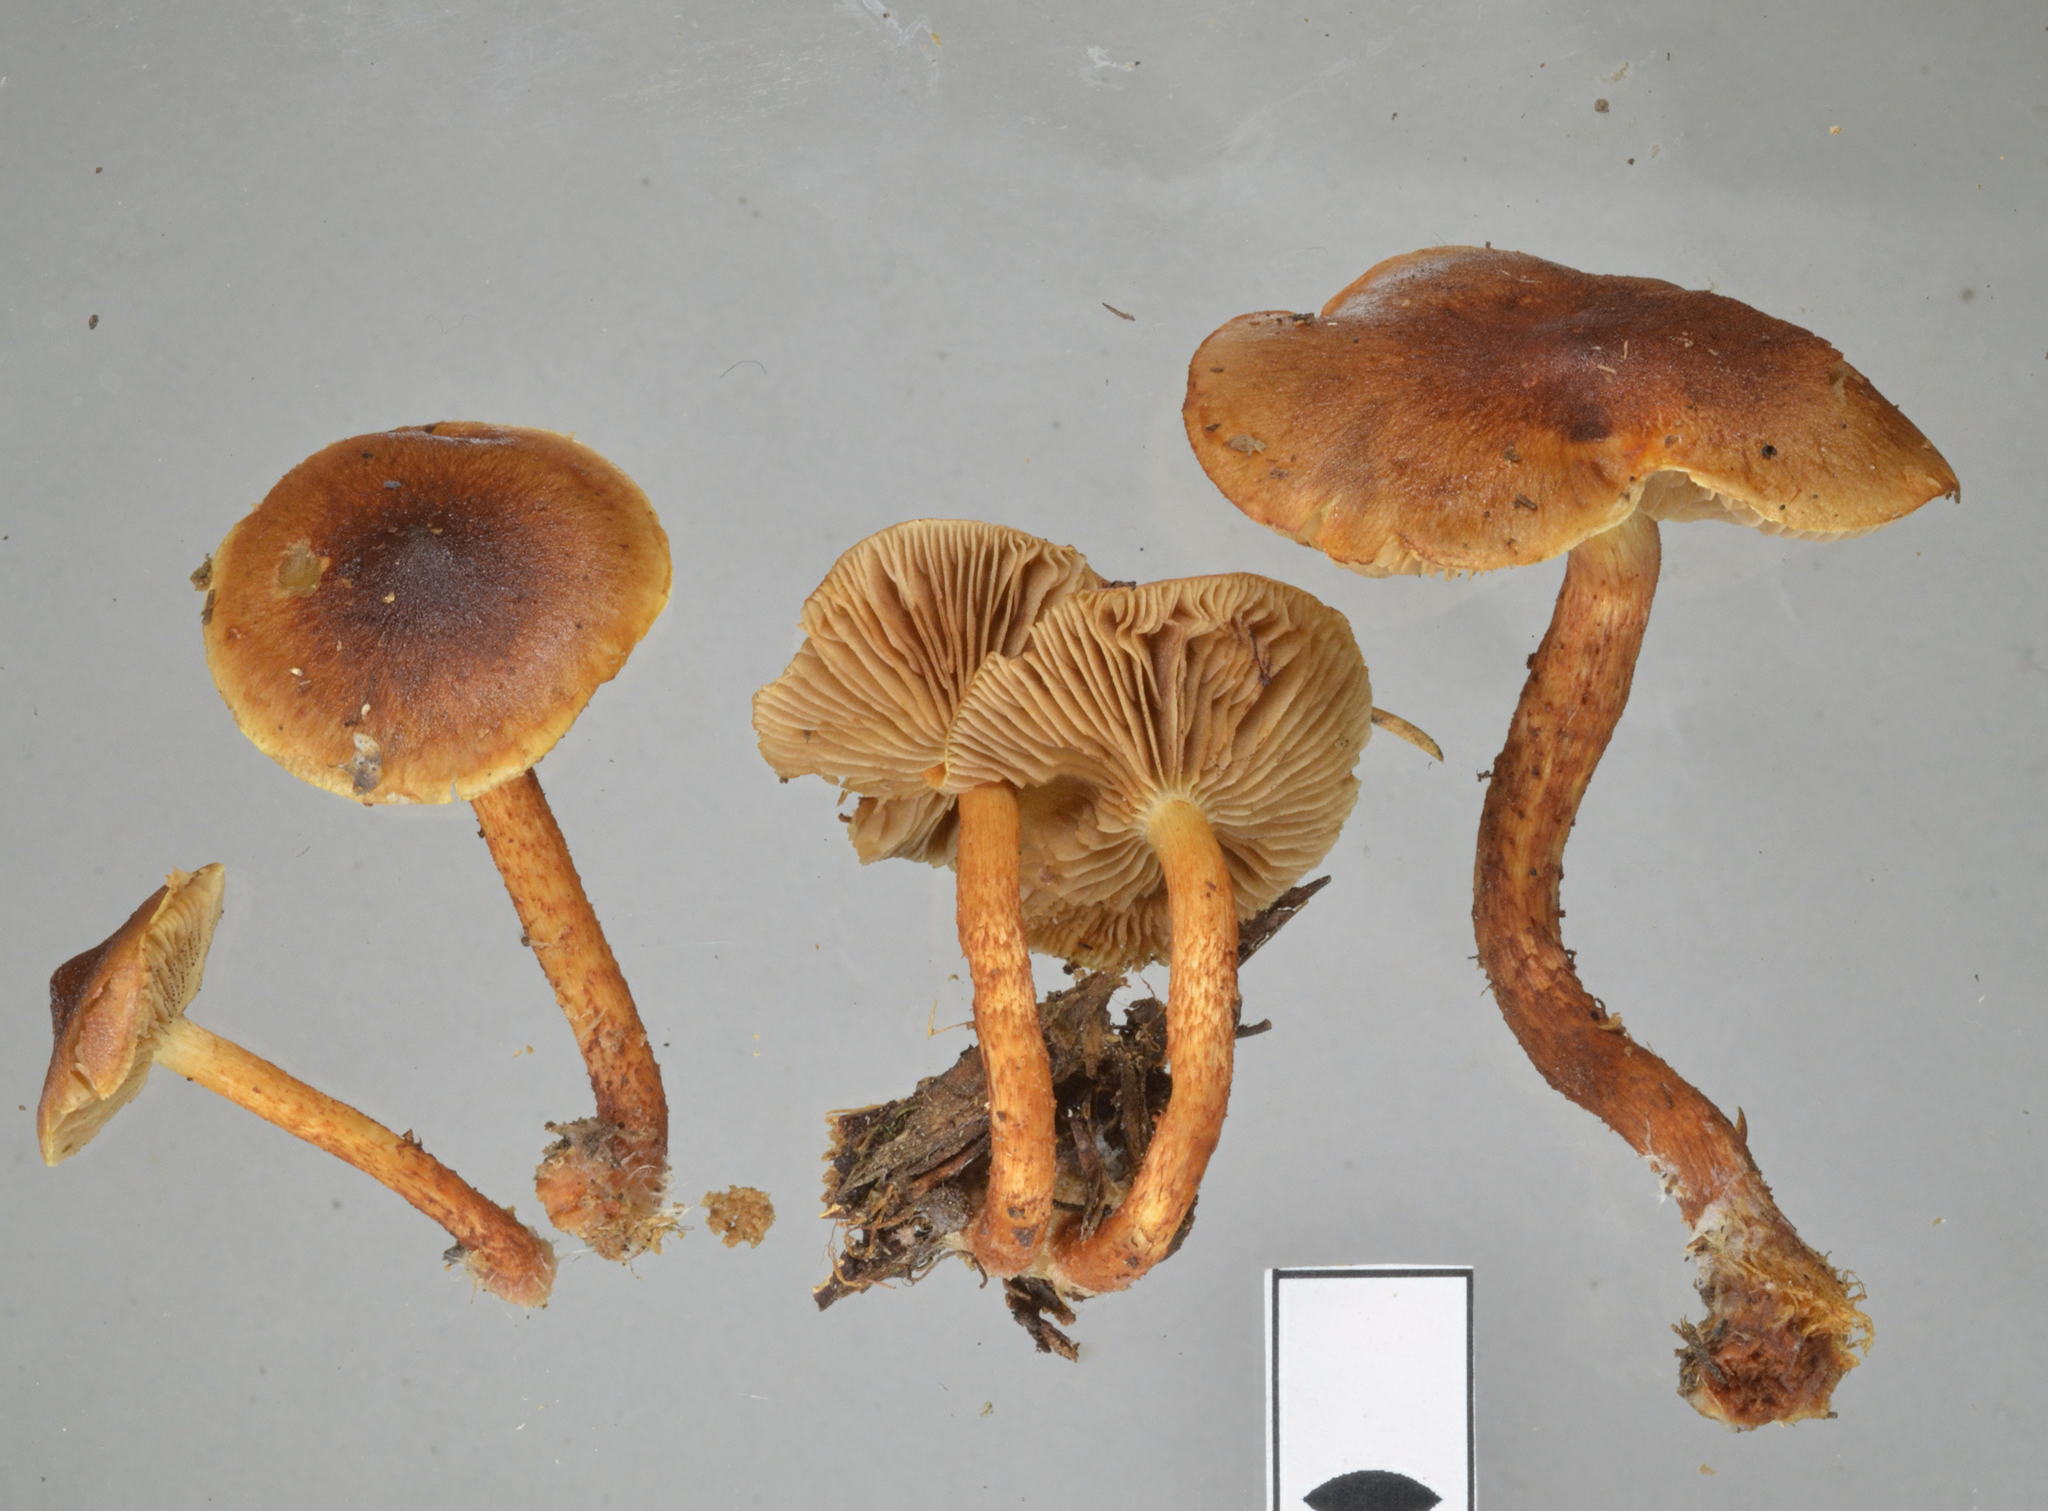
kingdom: Fungi
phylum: Basidiomycota
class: Agaricomycetes
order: Agaricales
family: Strophariaceae
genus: Pholiota
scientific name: Pholiota multicingulata
